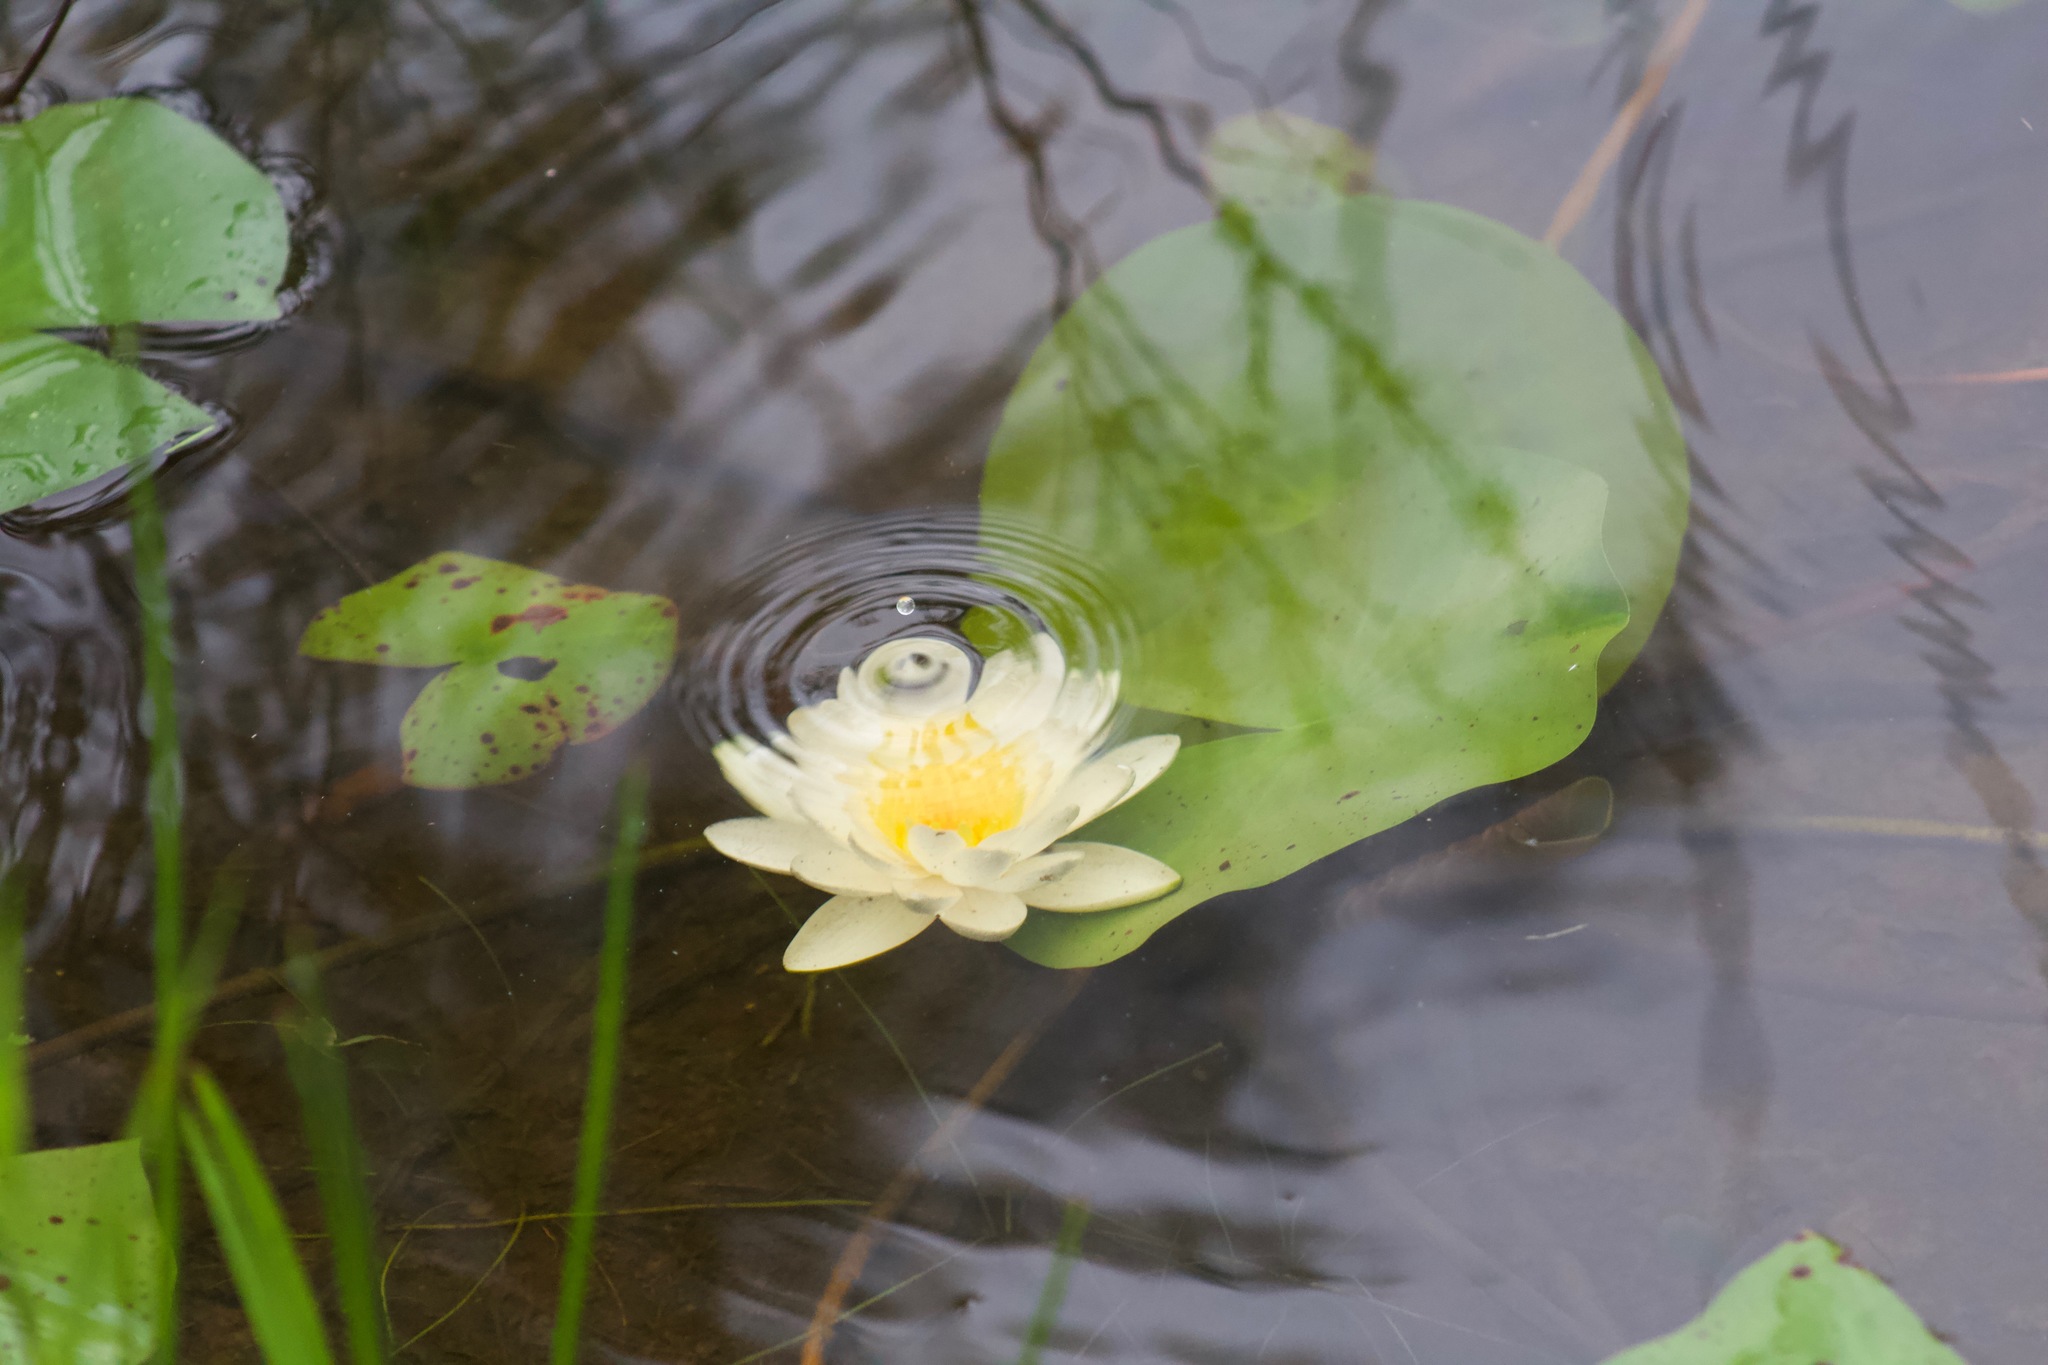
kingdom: Plantae
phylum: Tracheophyta
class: Magnoliopsida
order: Nymphaeales
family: Nymphaeaceae
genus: Nymphaea
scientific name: Nymphaea odorata
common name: Fragrant water-lily
